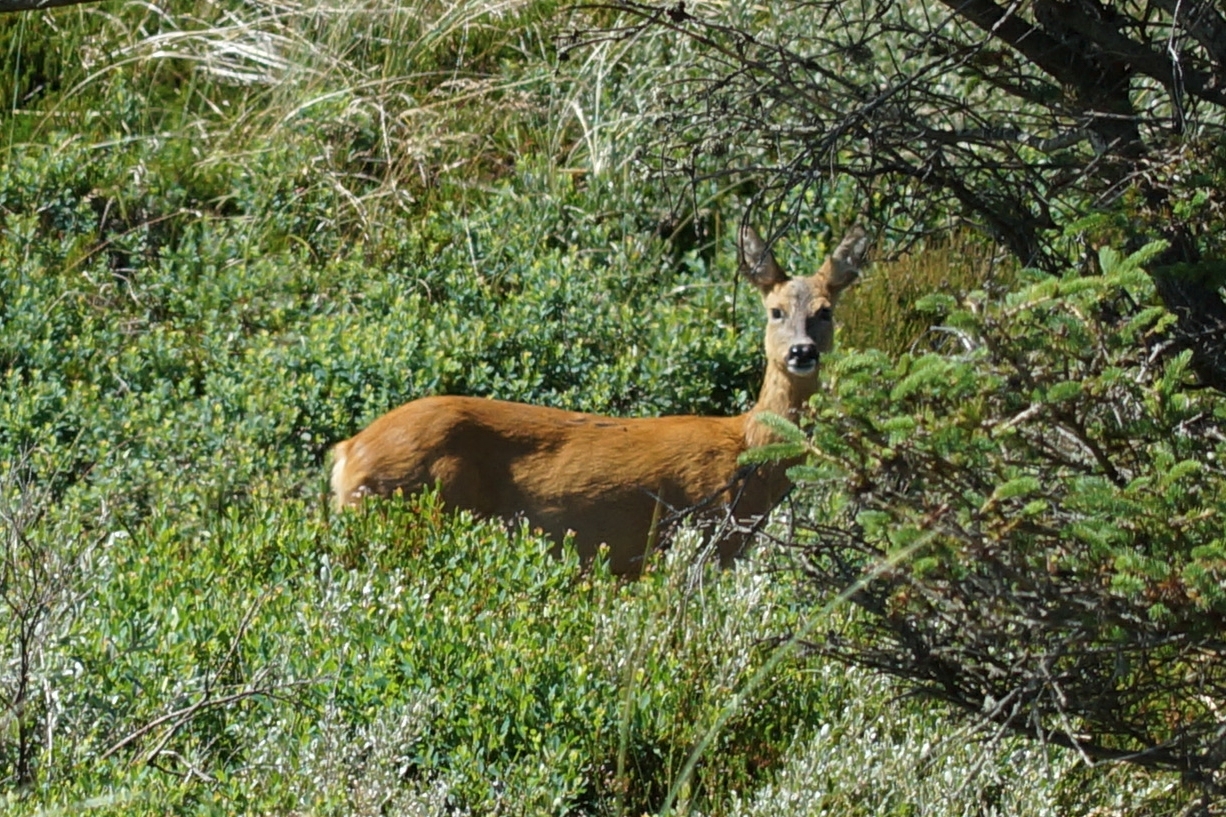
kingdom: Animalia
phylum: Chordata
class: Mammalia
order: Artiodactyla
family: Cervidae
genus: Capreolus
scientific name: Capreolus capreolus
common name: Western roe deer
